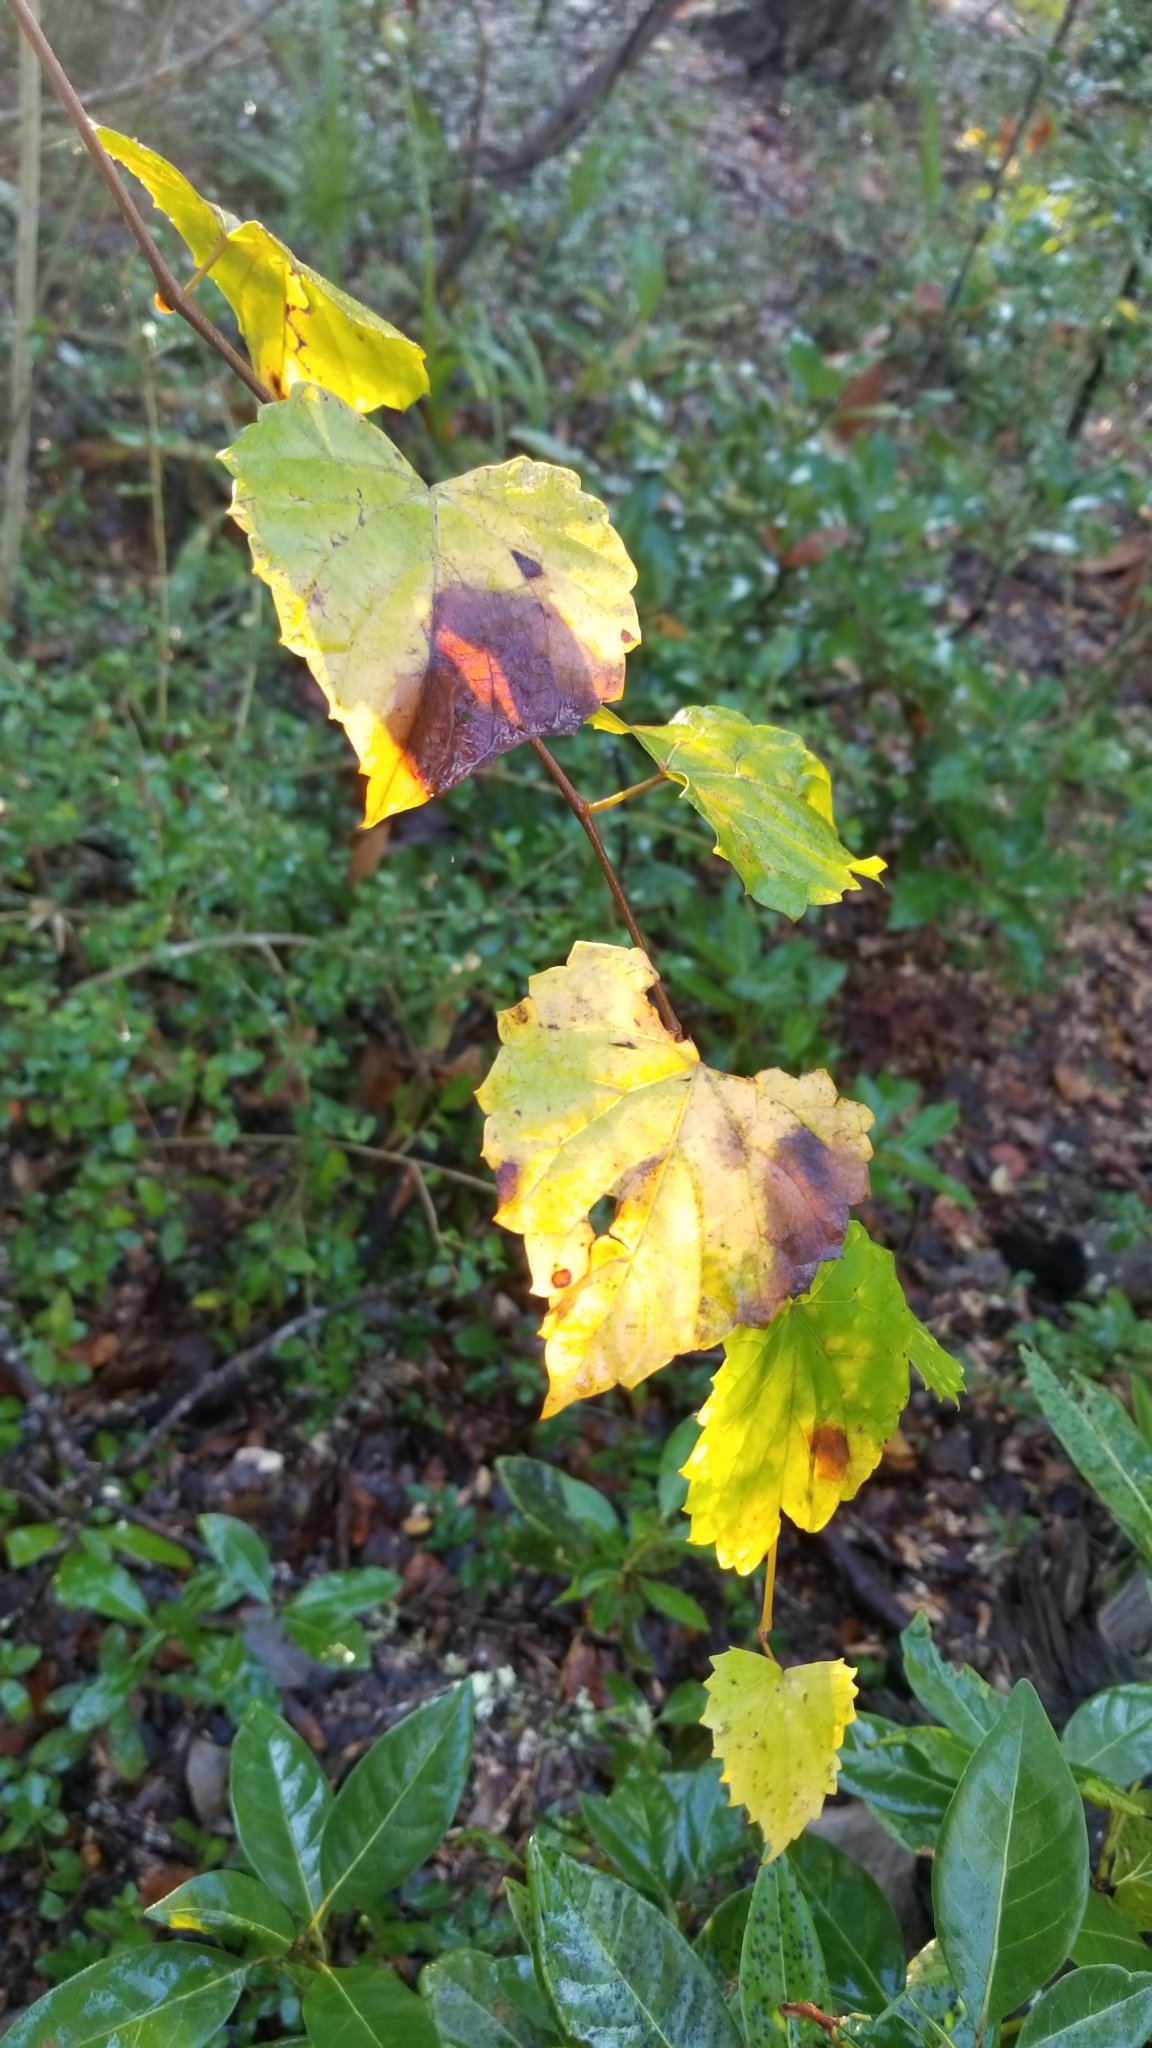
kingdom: Plantae
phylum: Tracheophyta
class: Magnoliopsida
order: Vitales
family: Vitaceae
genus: Vitis
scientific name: Vitis rotundifolia
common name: Muscadine grape
